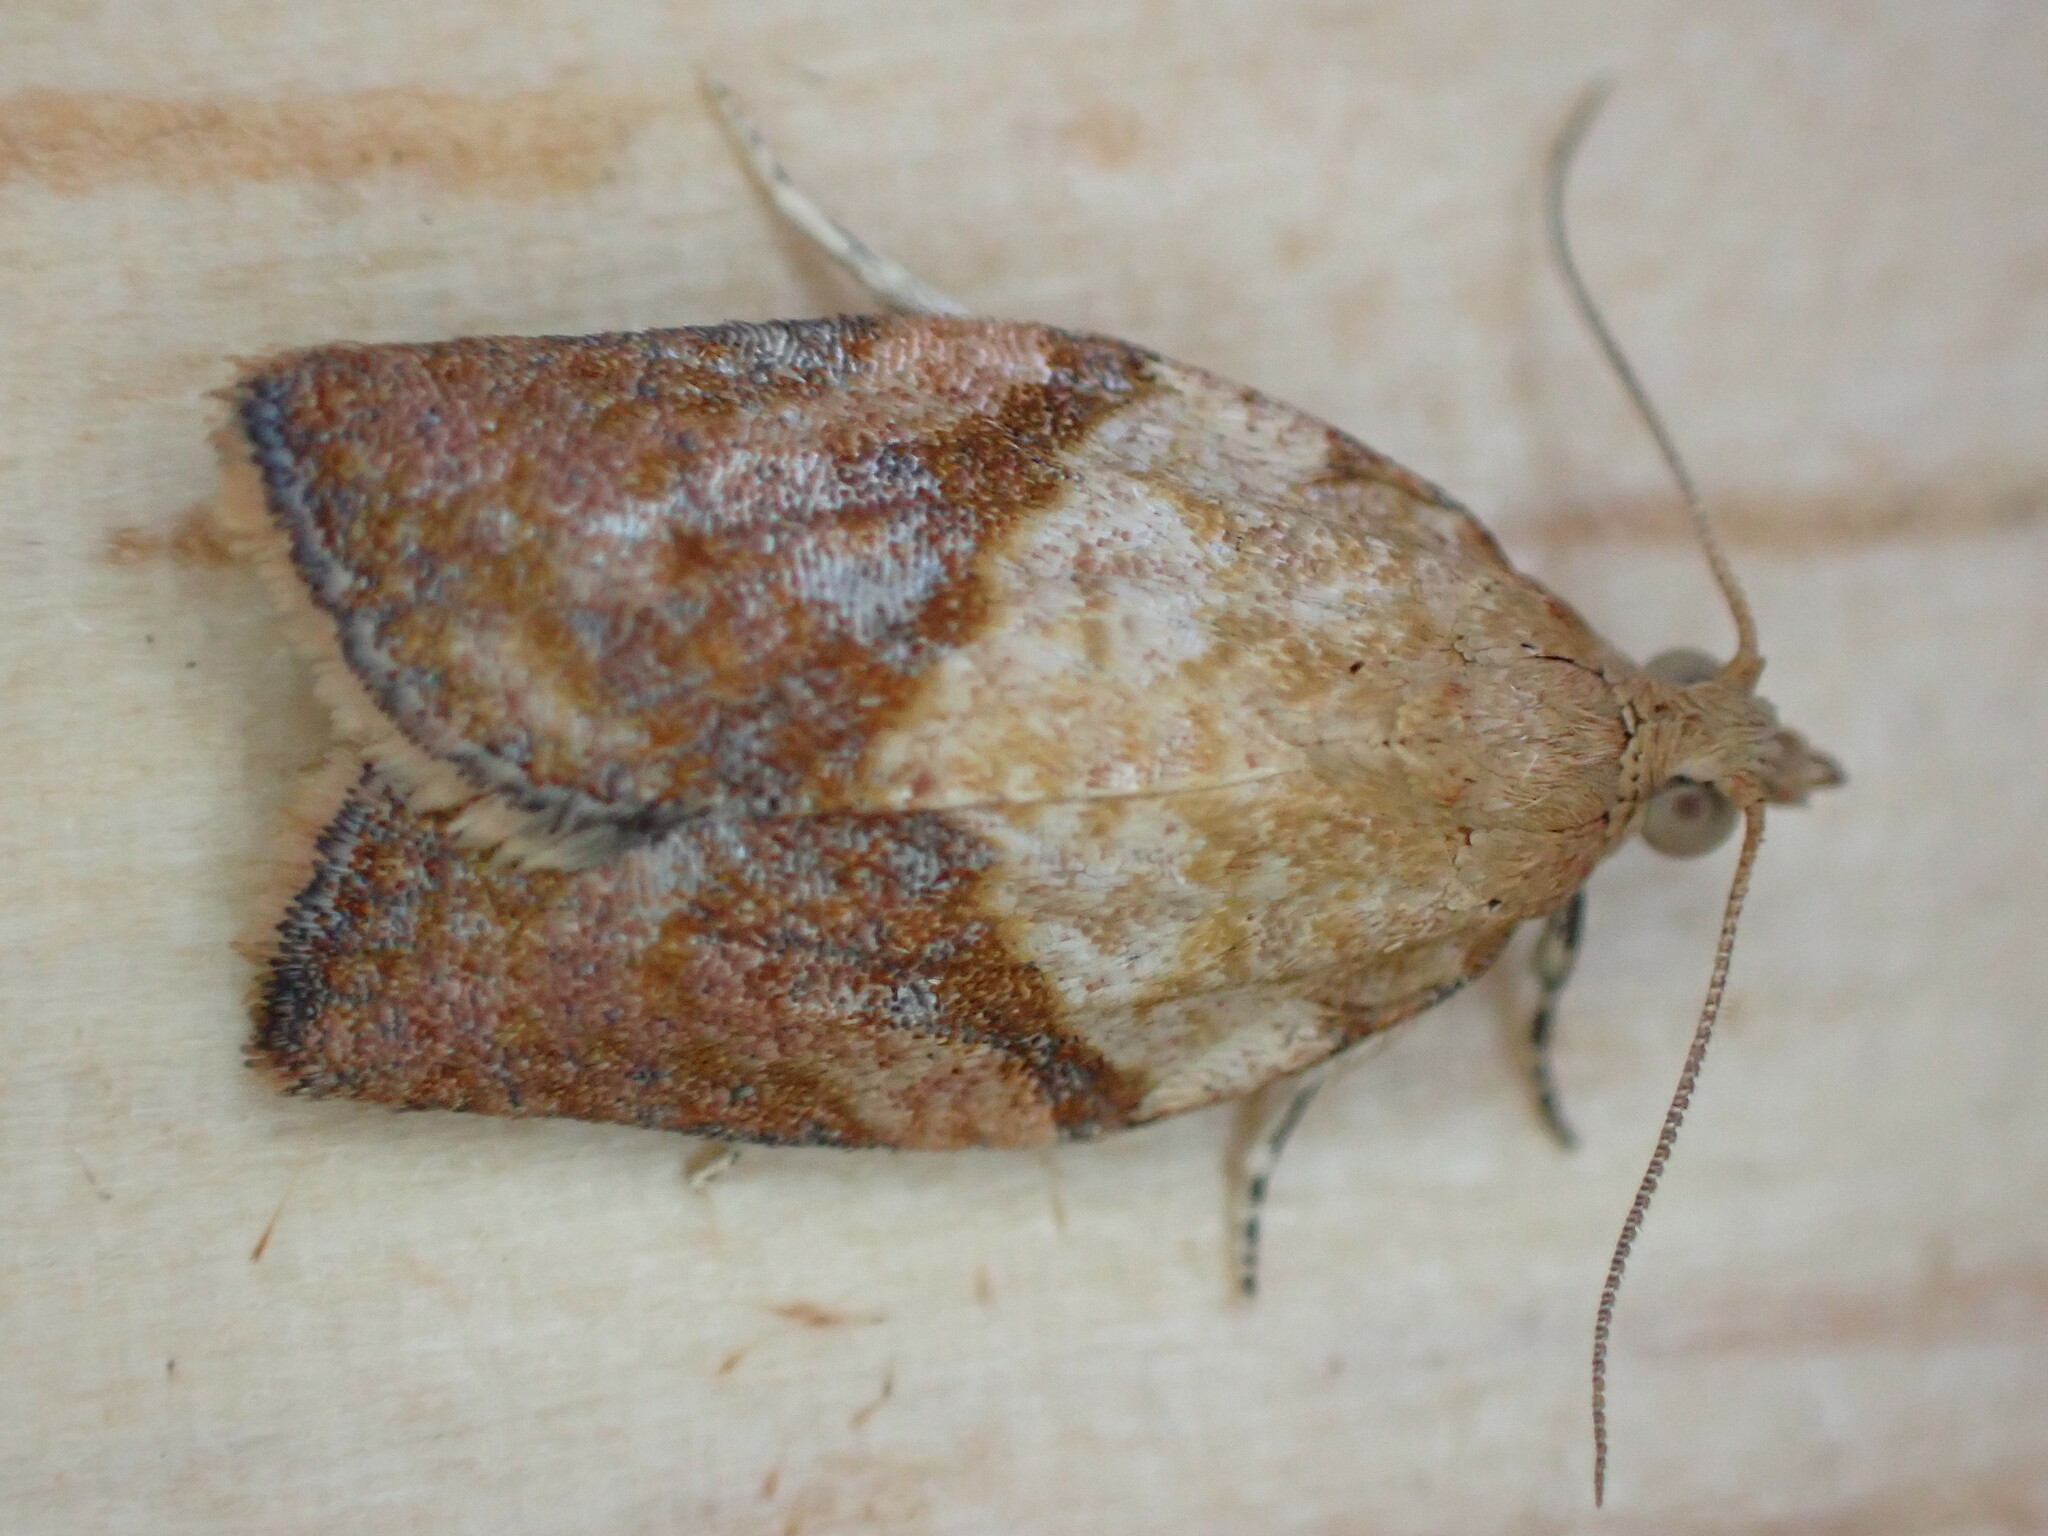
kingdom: Animalia
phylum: Arthropoda
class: Insecta
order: Lepidoptera
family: Tortricidae
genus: Epiphyas
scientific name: Epiphyas postvittana
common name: Light brown apple moth
